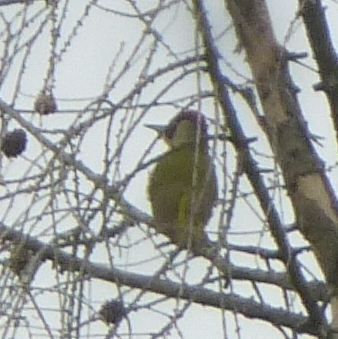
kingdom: Animalia
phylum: Chordata
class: Aves
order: Piciformes
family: Picidae
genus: Picus
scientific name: Picus viridis
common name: European green woodpecker
